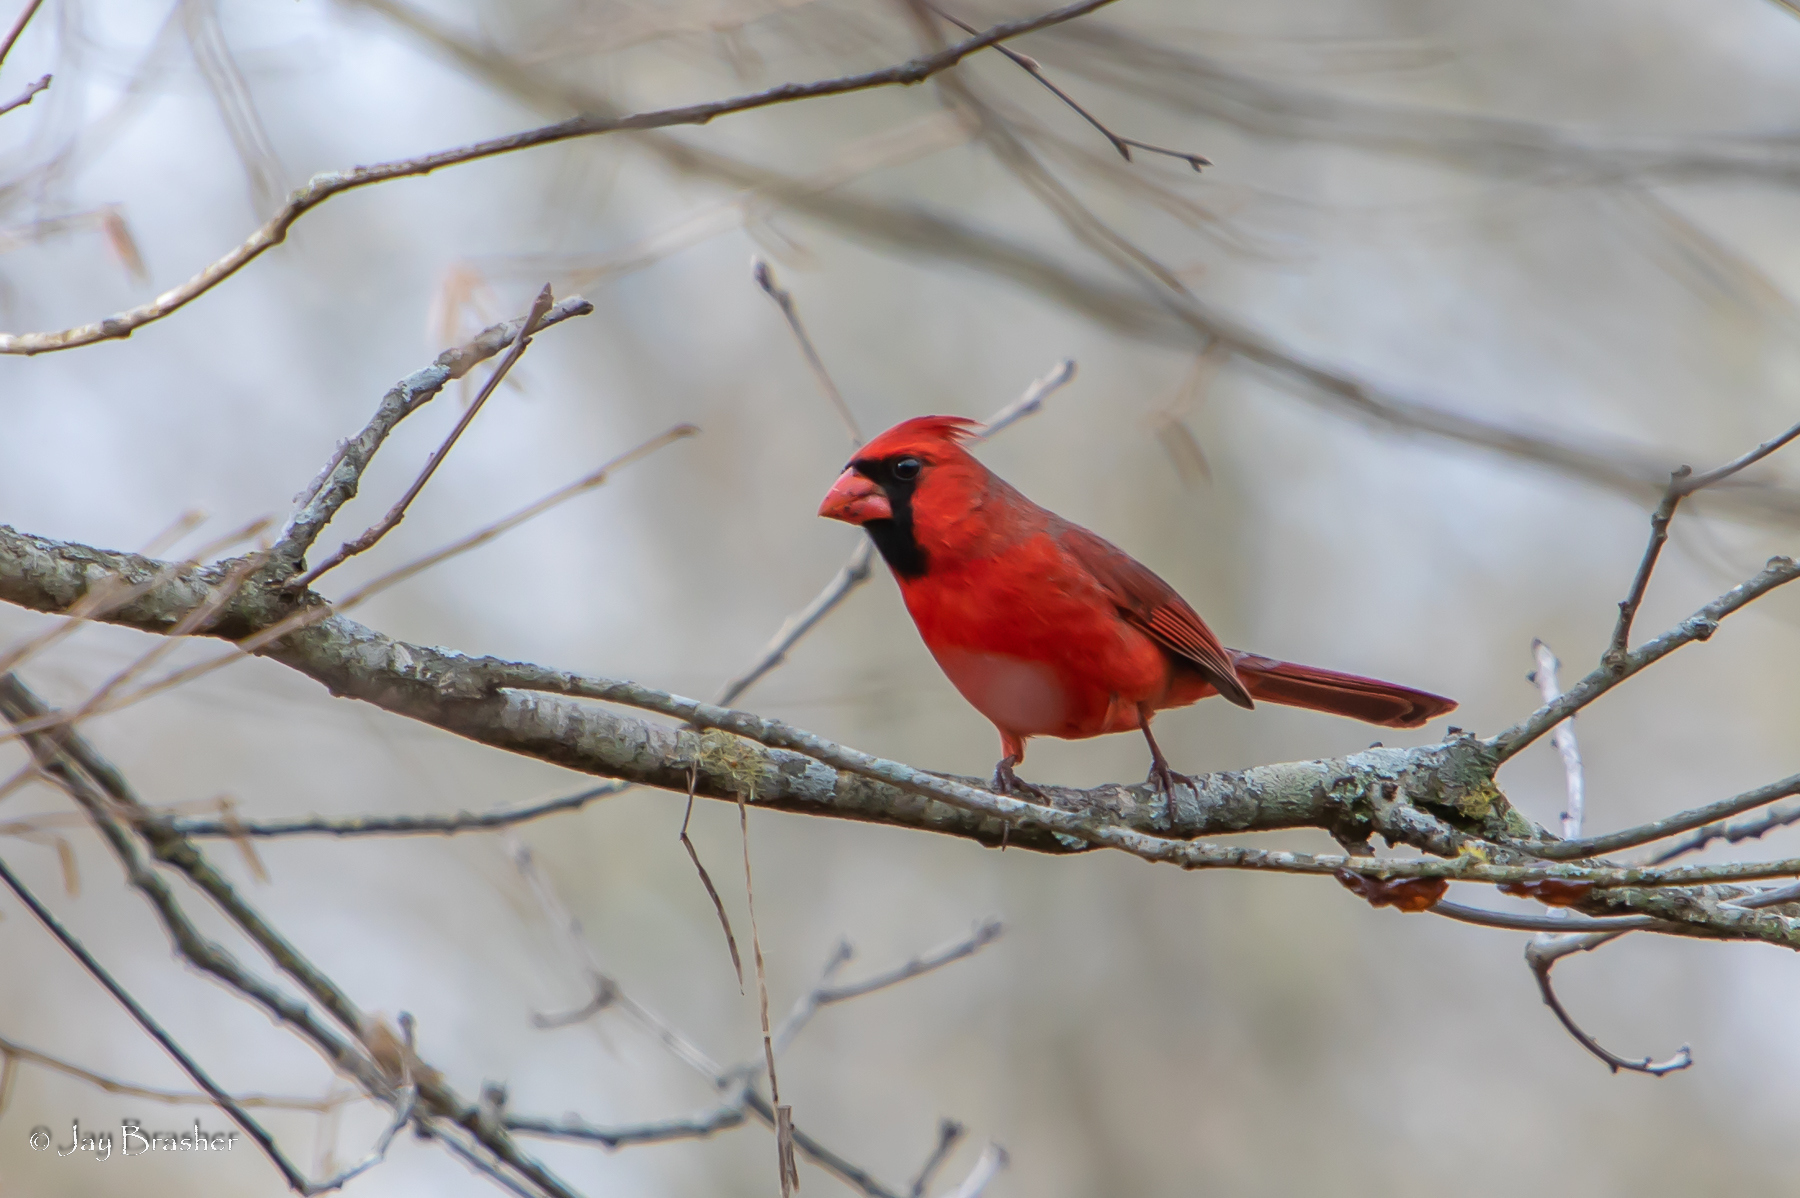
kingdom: Animalia
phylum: Chordata
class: Aves
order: Passeriformes
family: Cardinalidae
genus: Cardinalis
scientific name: Cardinalis cardinalis
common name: Northern cardinal
